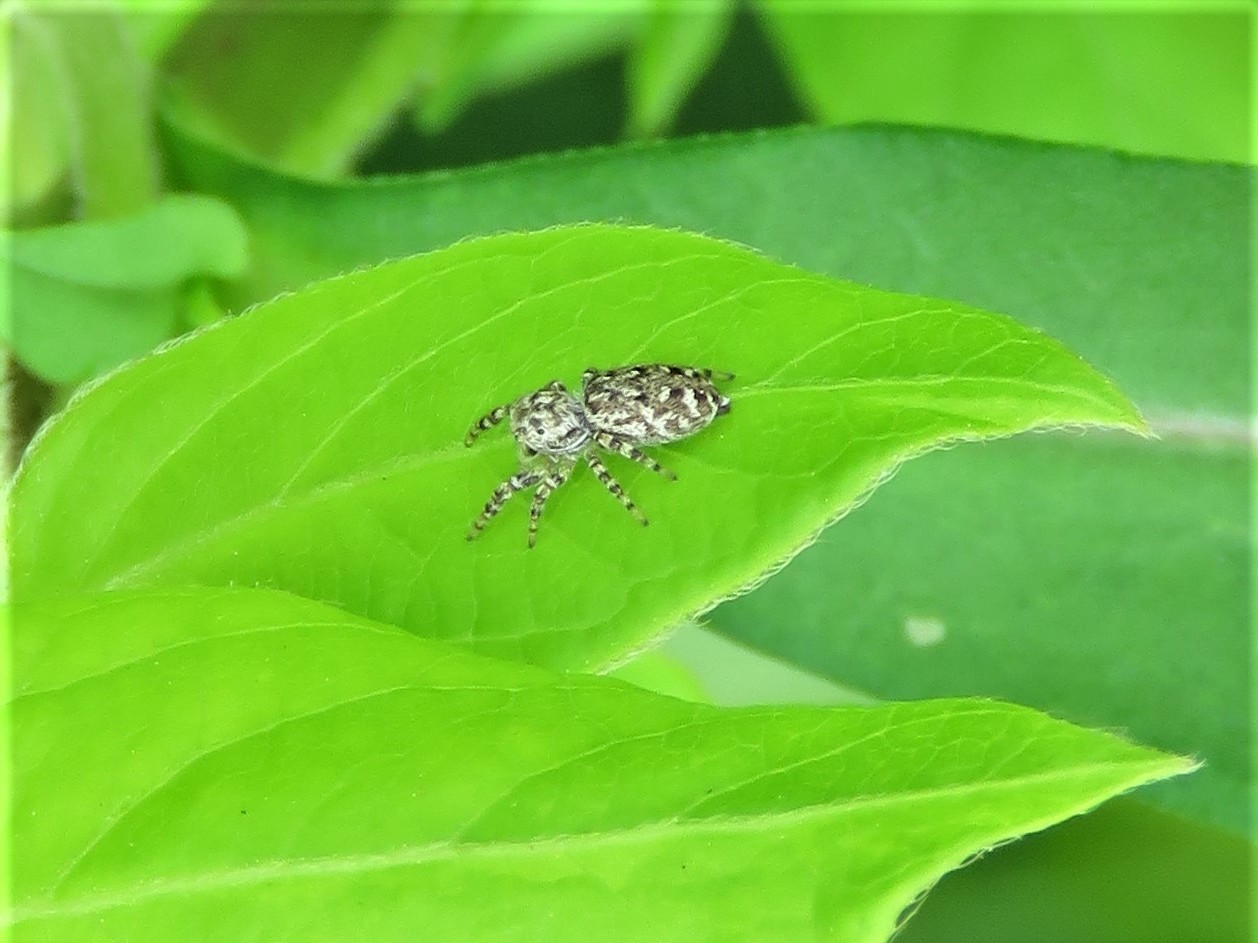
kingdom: Animalia
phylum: Arthropoda
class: Arachnida
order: Araneae
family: Salticidae
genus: Pelegrina
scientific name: Pelegrina galathea
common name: Jumping spiders
